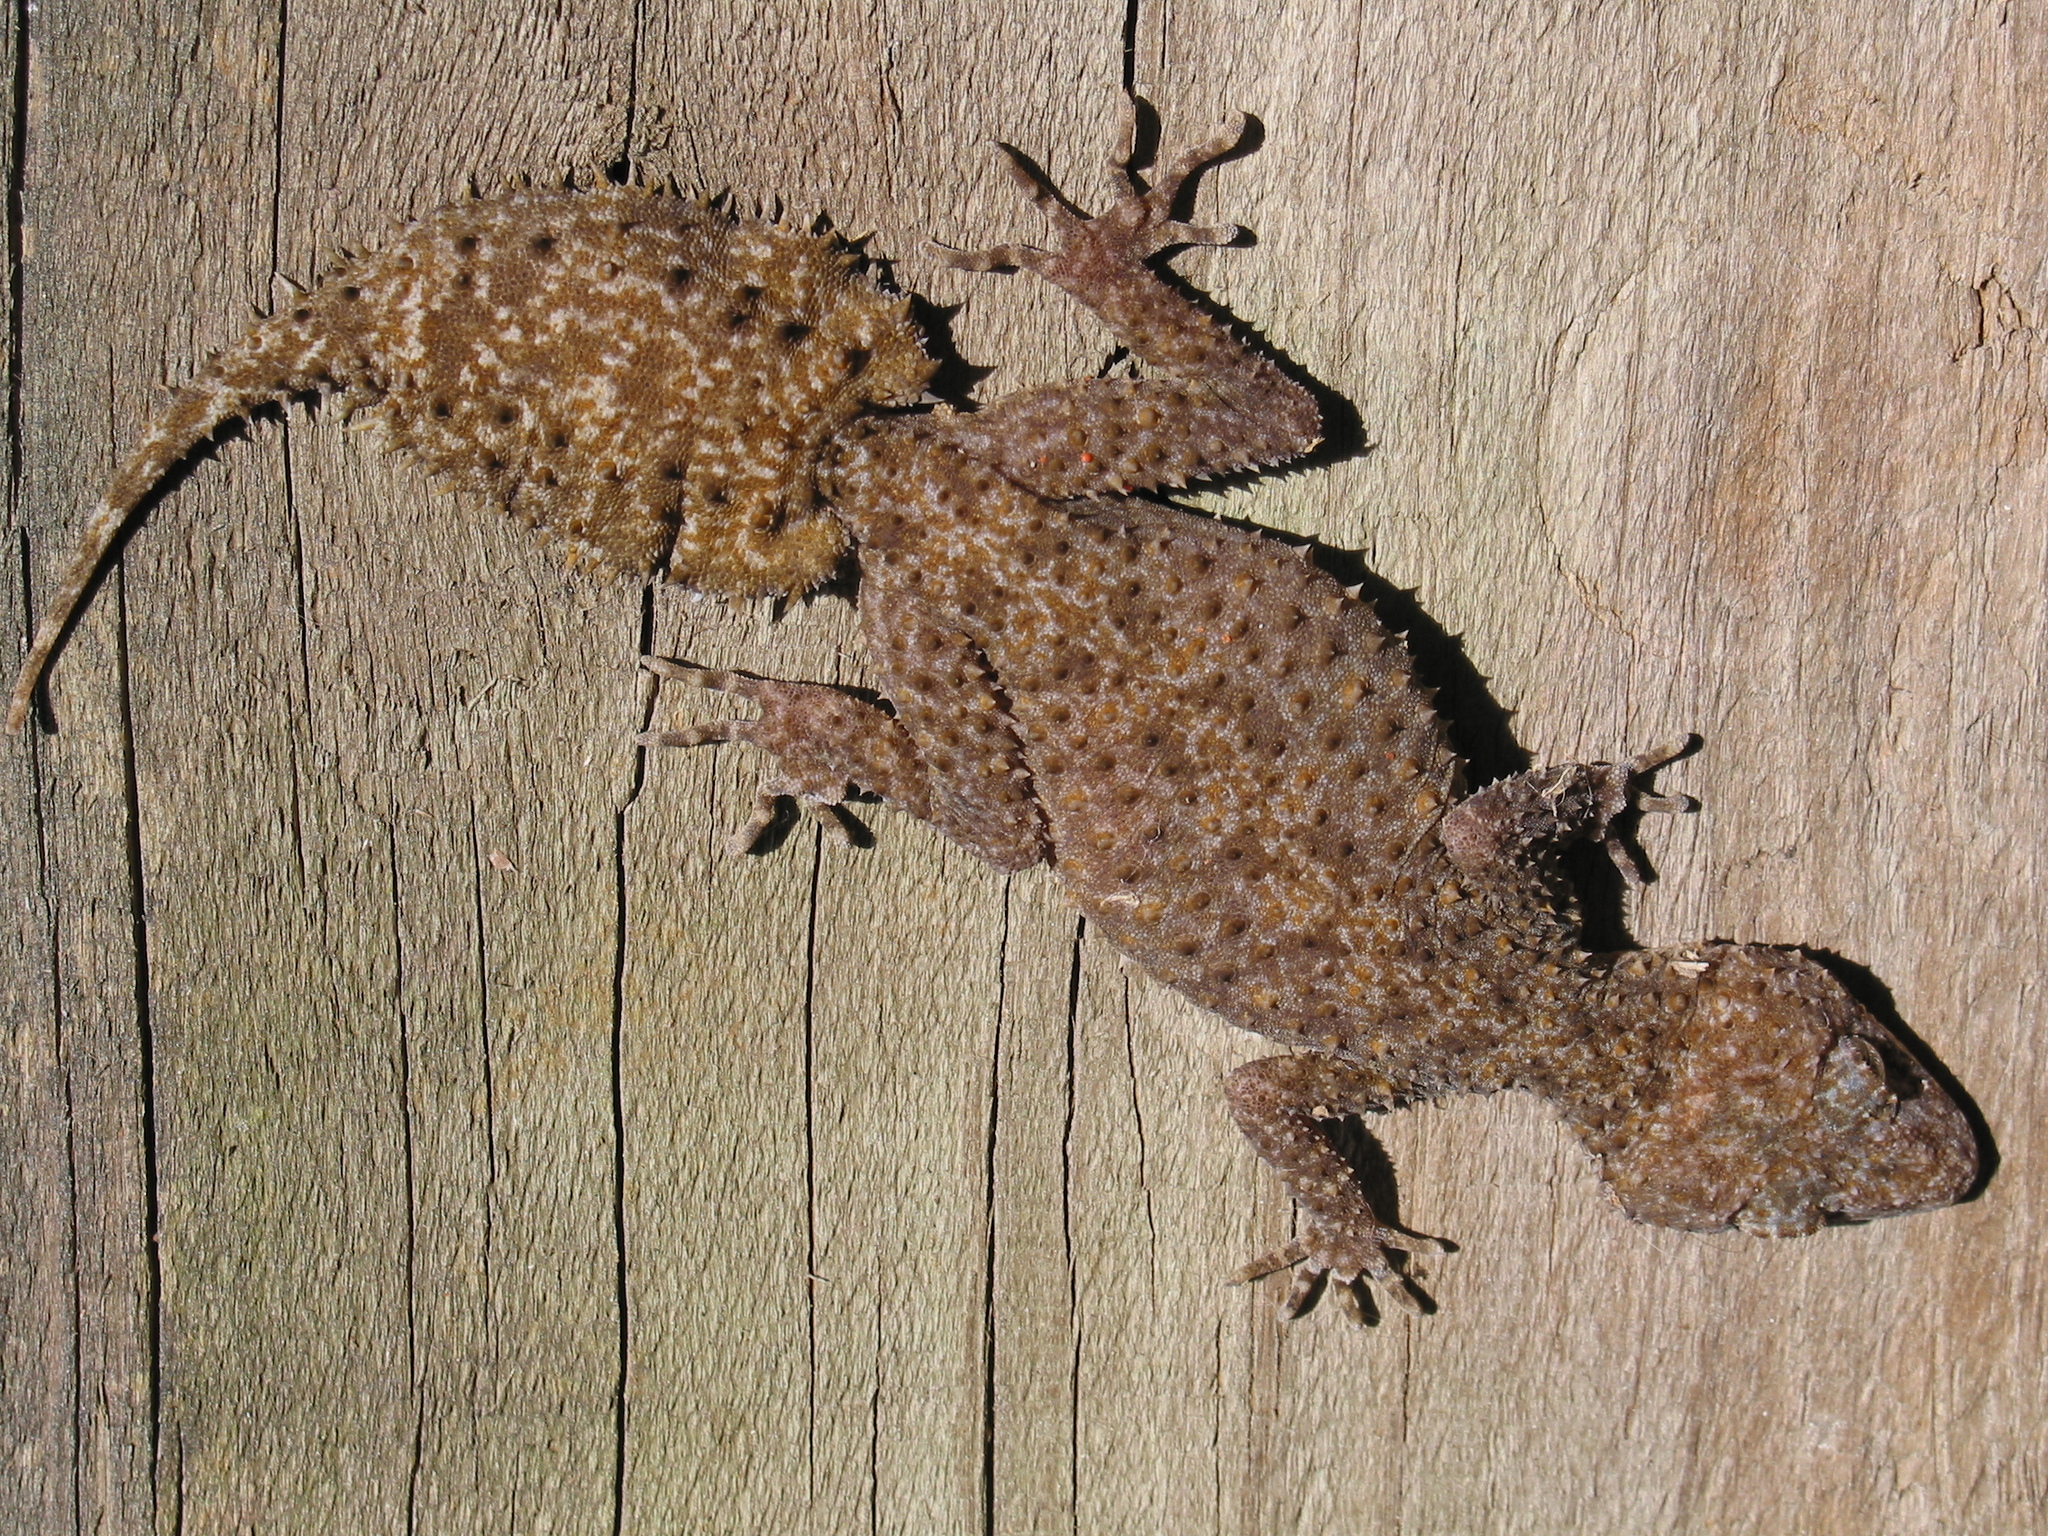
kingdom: Animalia
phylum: Chordata
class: Squamata
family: Carphodactylidae
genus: Phyllurus
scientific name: Phyllurus platurus
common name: Broad-tailed gecko
